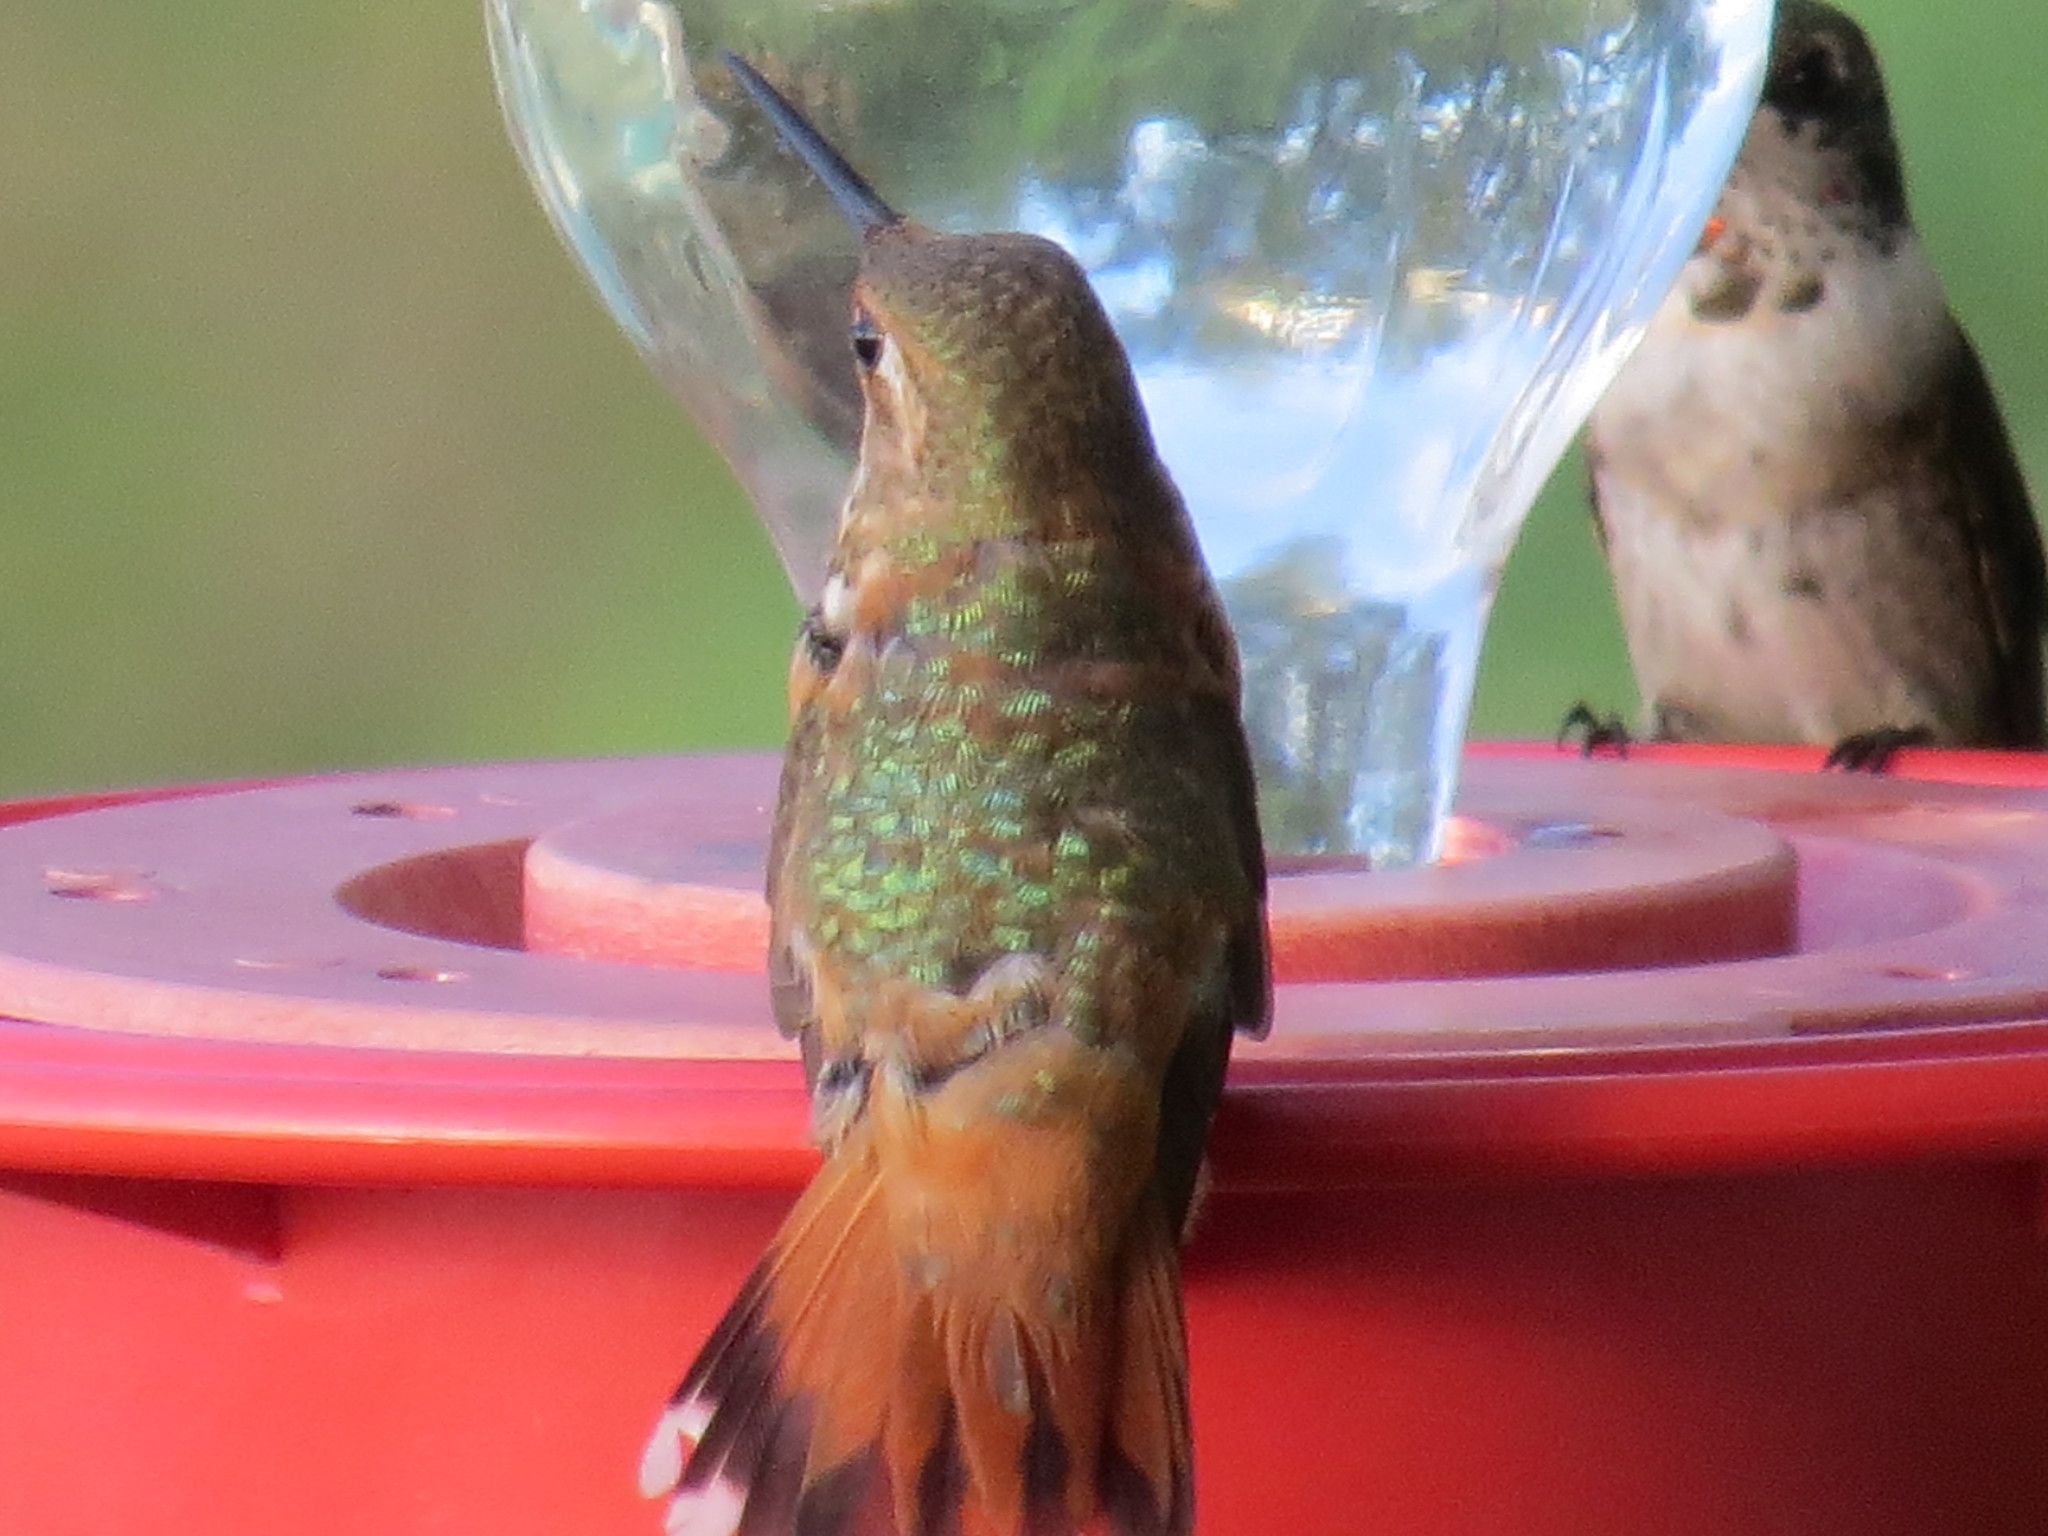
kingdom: Animalia
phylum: Chordata
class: Aves
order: Apodiformes
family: Trochilidae
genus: Selasphorus
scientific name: Selasphorus rufus
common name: Rufous hummingbird
